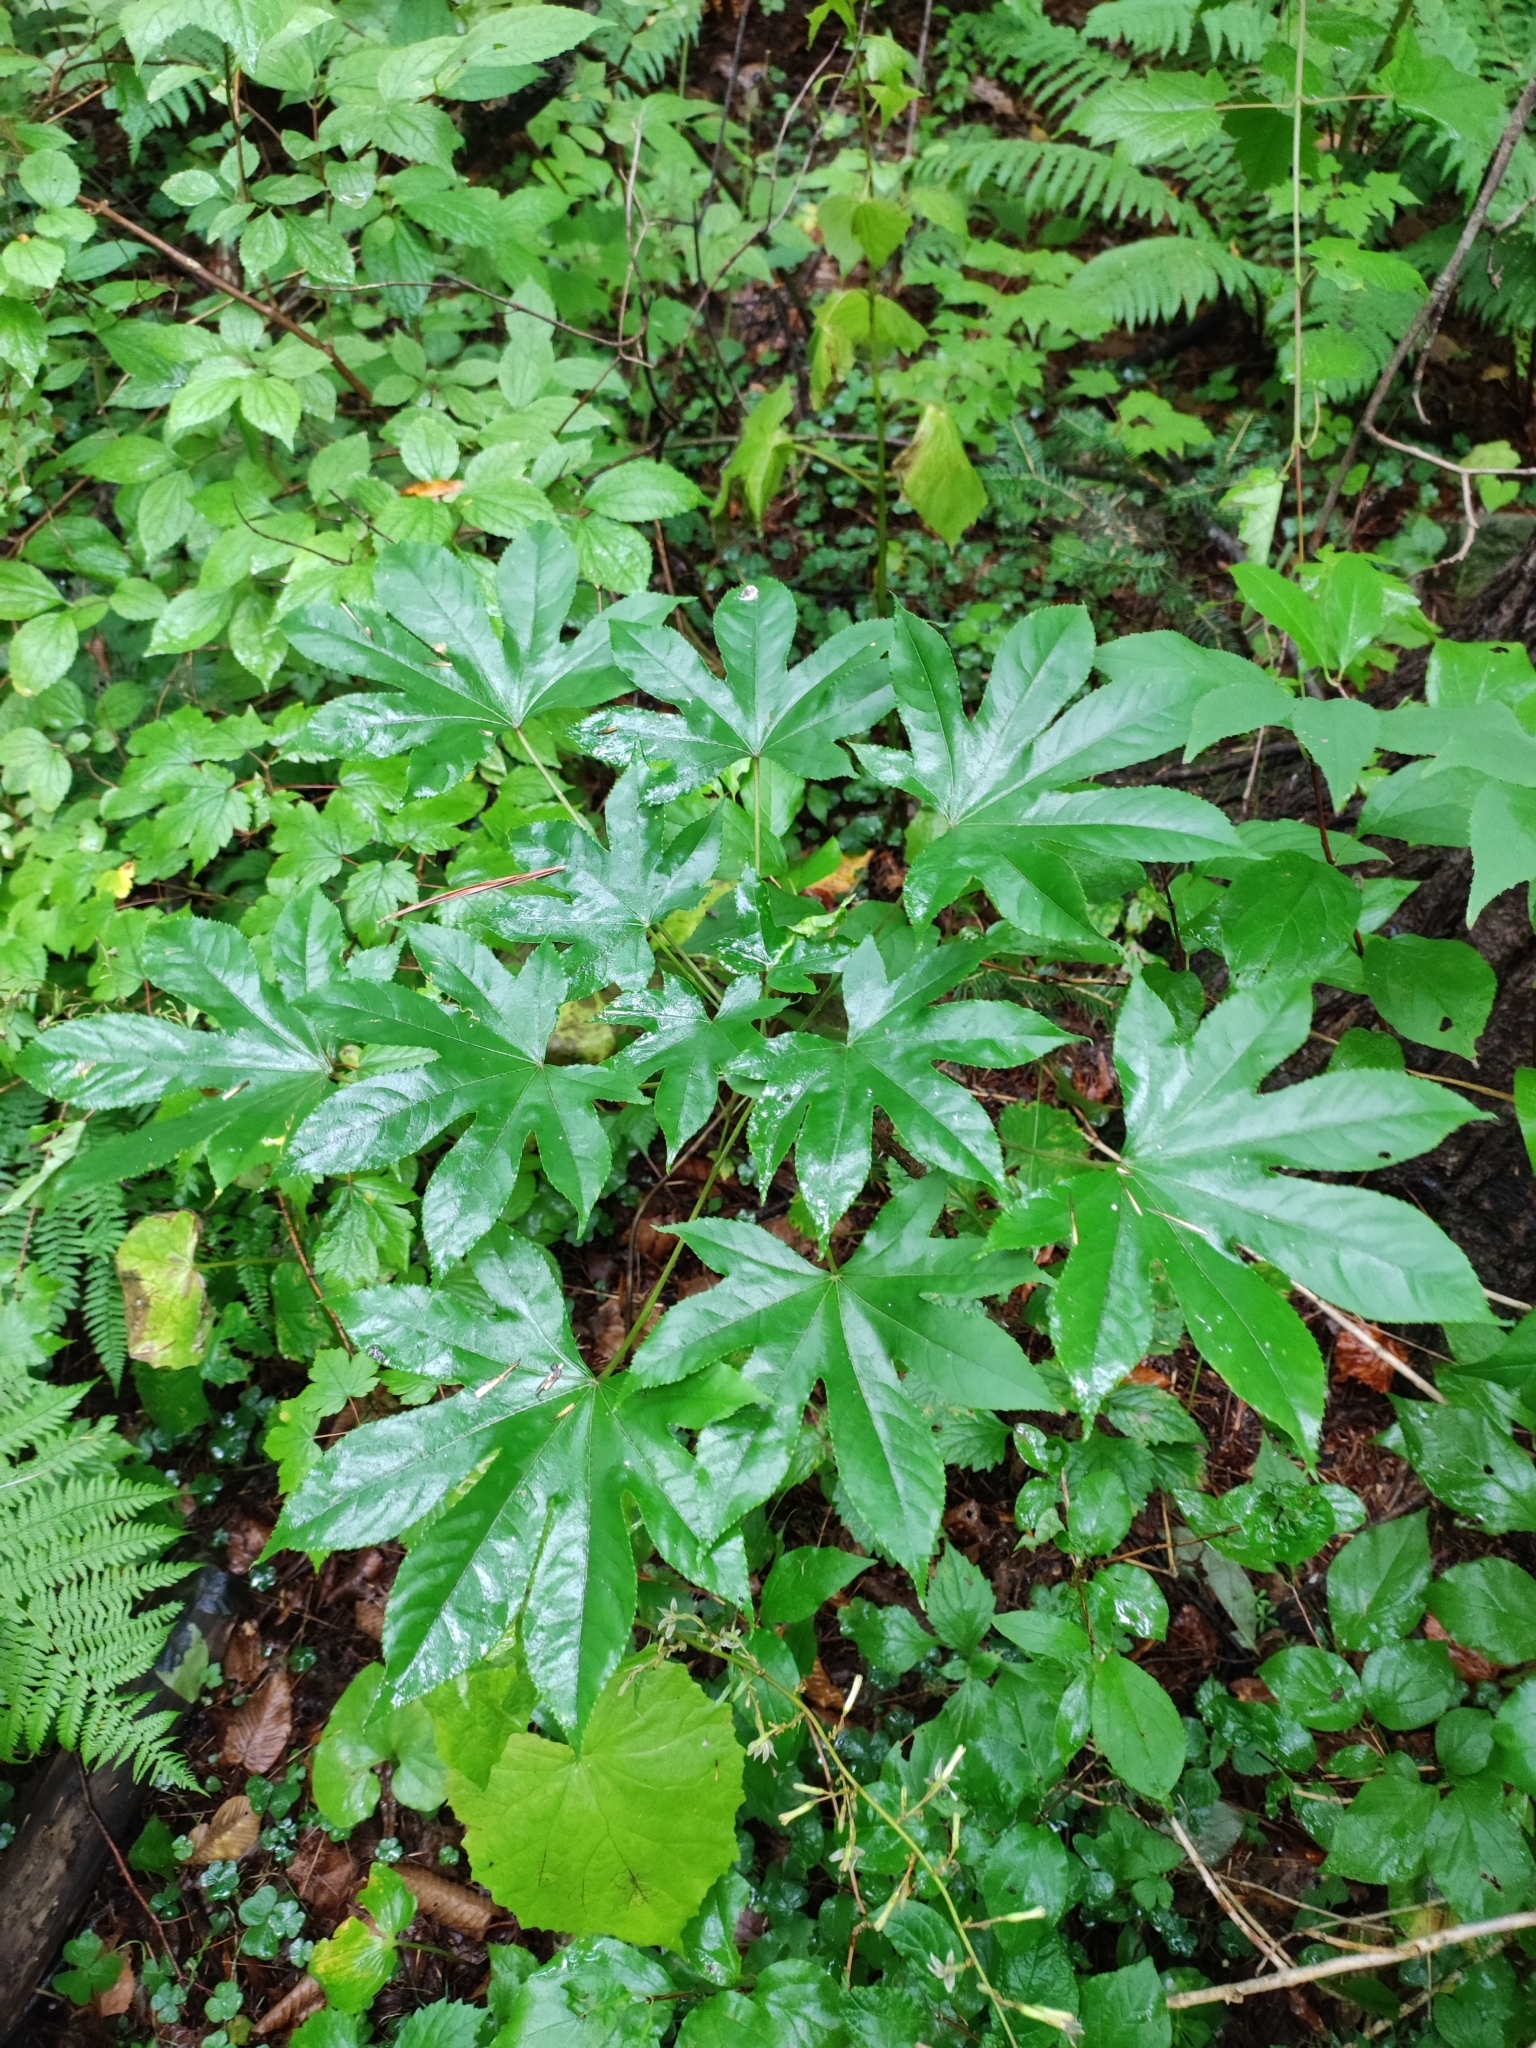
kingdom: Plantae
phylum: Tracheophyta
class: Magnoliopsida
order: Apiales
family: Araliaceae
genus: Kalopanax
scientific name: Kalopanax septemlobus
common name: Castor aralia
